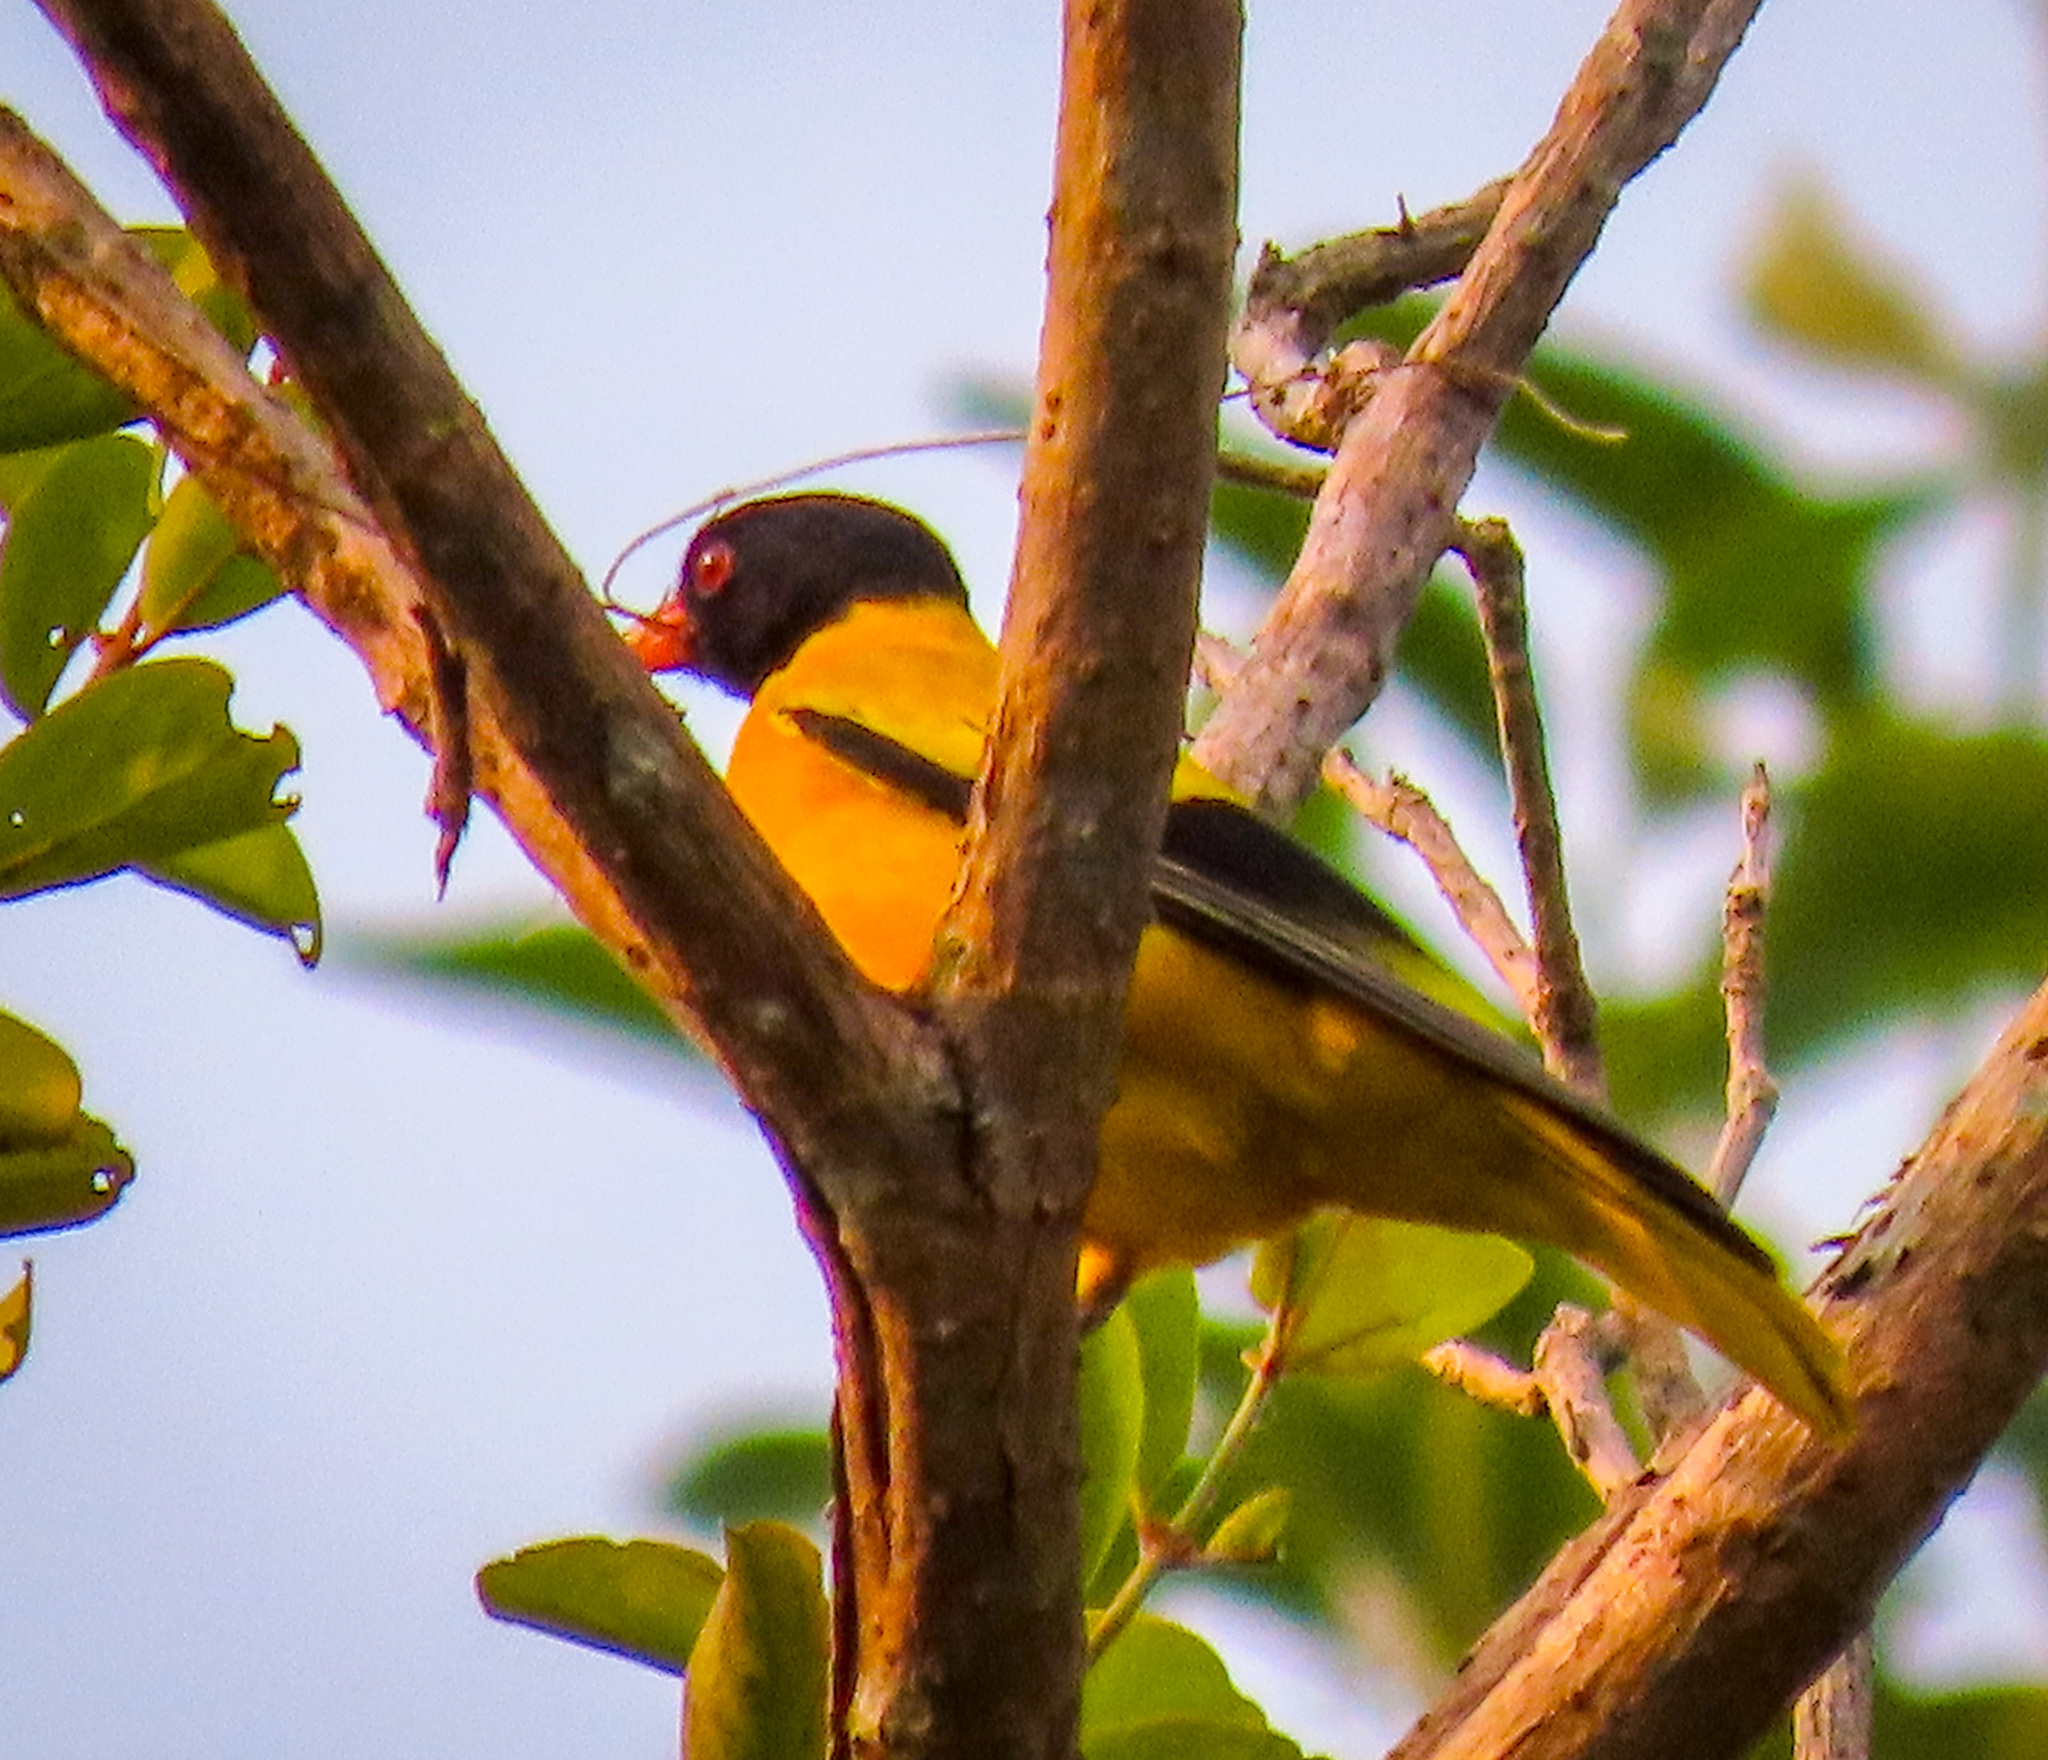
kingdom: Animalia
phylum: Chordata
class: Aves
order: Passeriformes
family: Oriolidae
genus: Oriolus
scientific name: Oriolus xanthornus
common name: Black-hooded oriole
